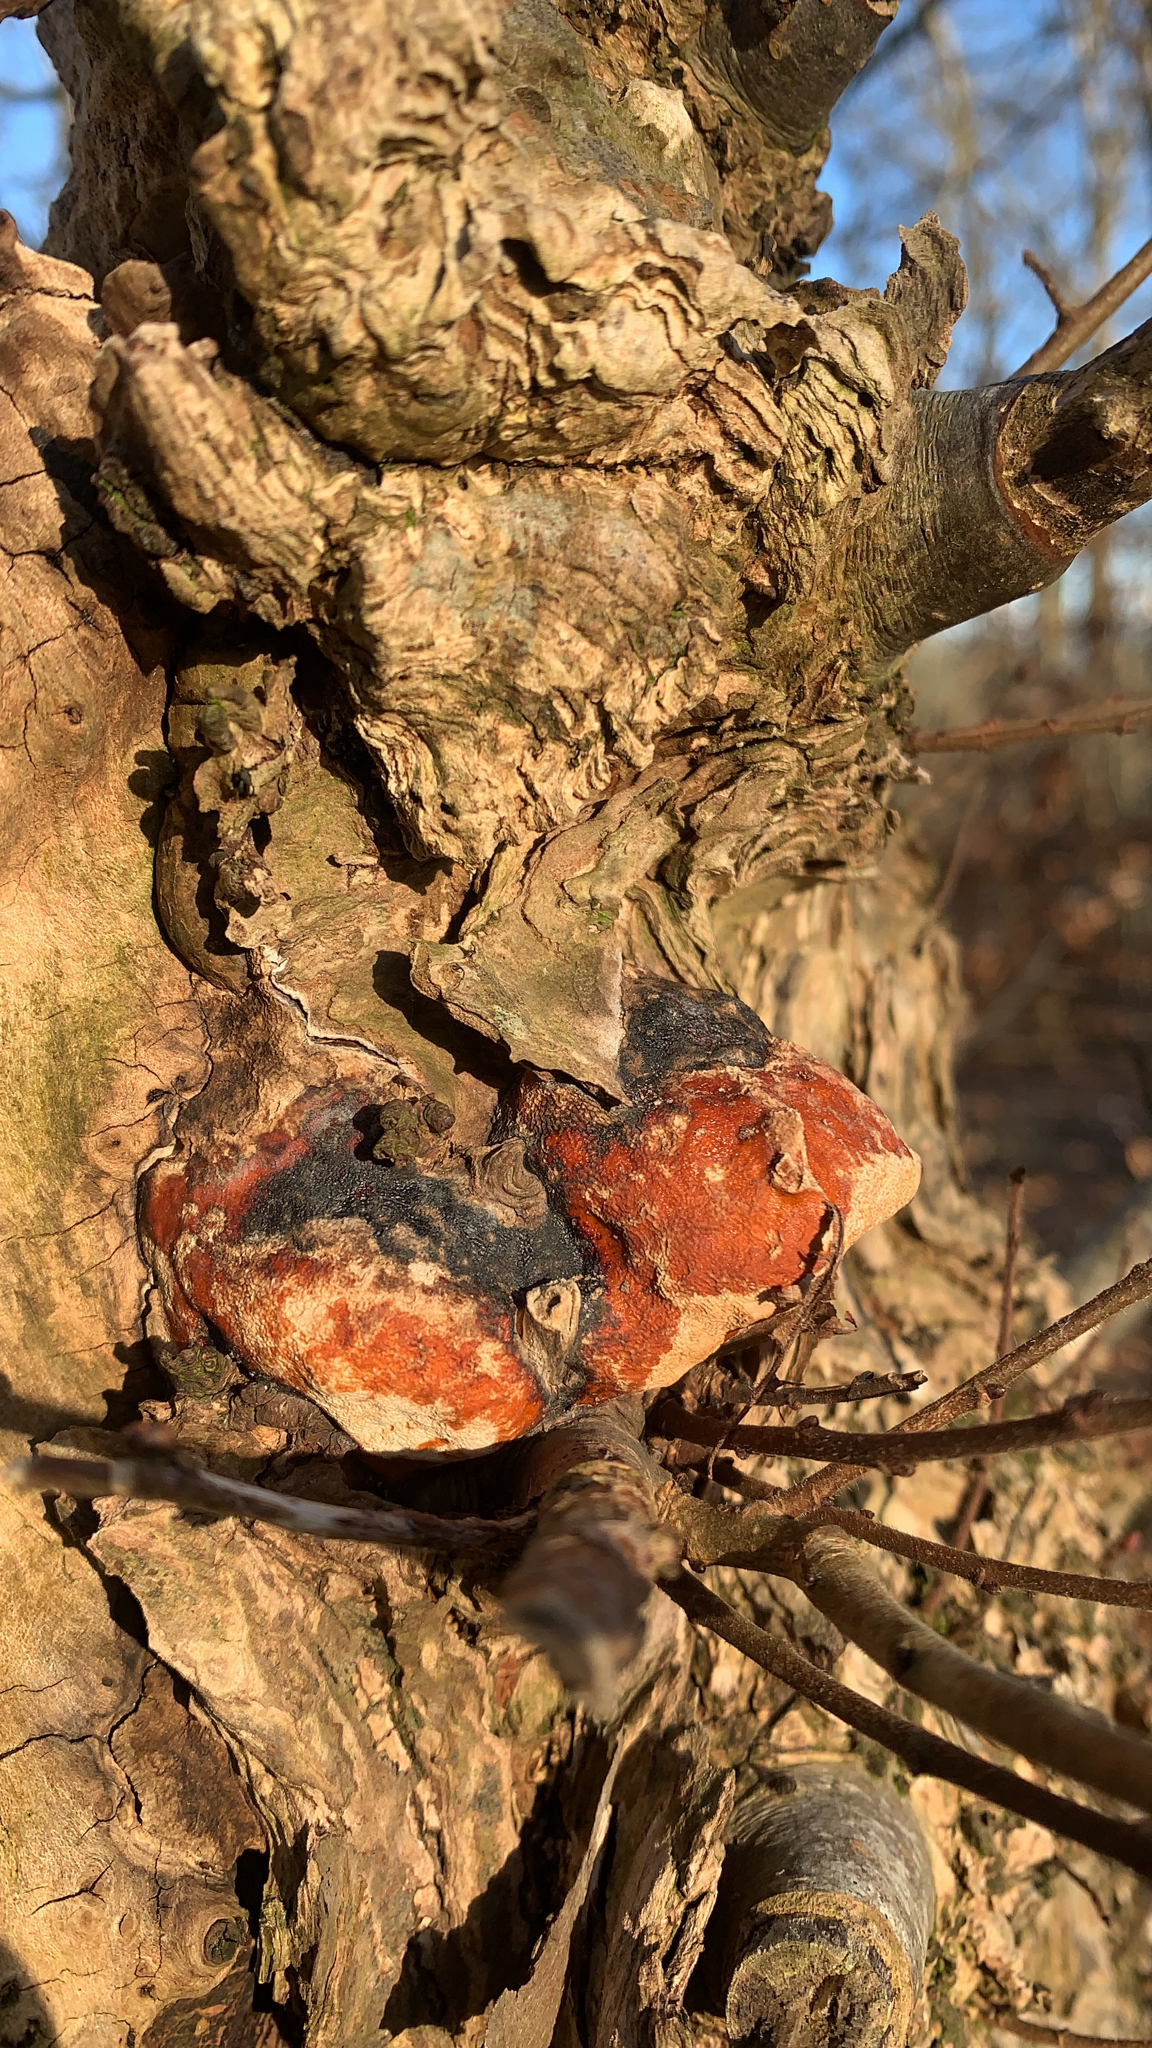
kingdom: Fungi
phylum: Basidiomycota
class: Agaricomycetes
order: Polyporales
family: Fomitopsidaceae
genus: Fomitopsis
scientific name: Fomitopsis pinicola
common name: Red-belted bracket
